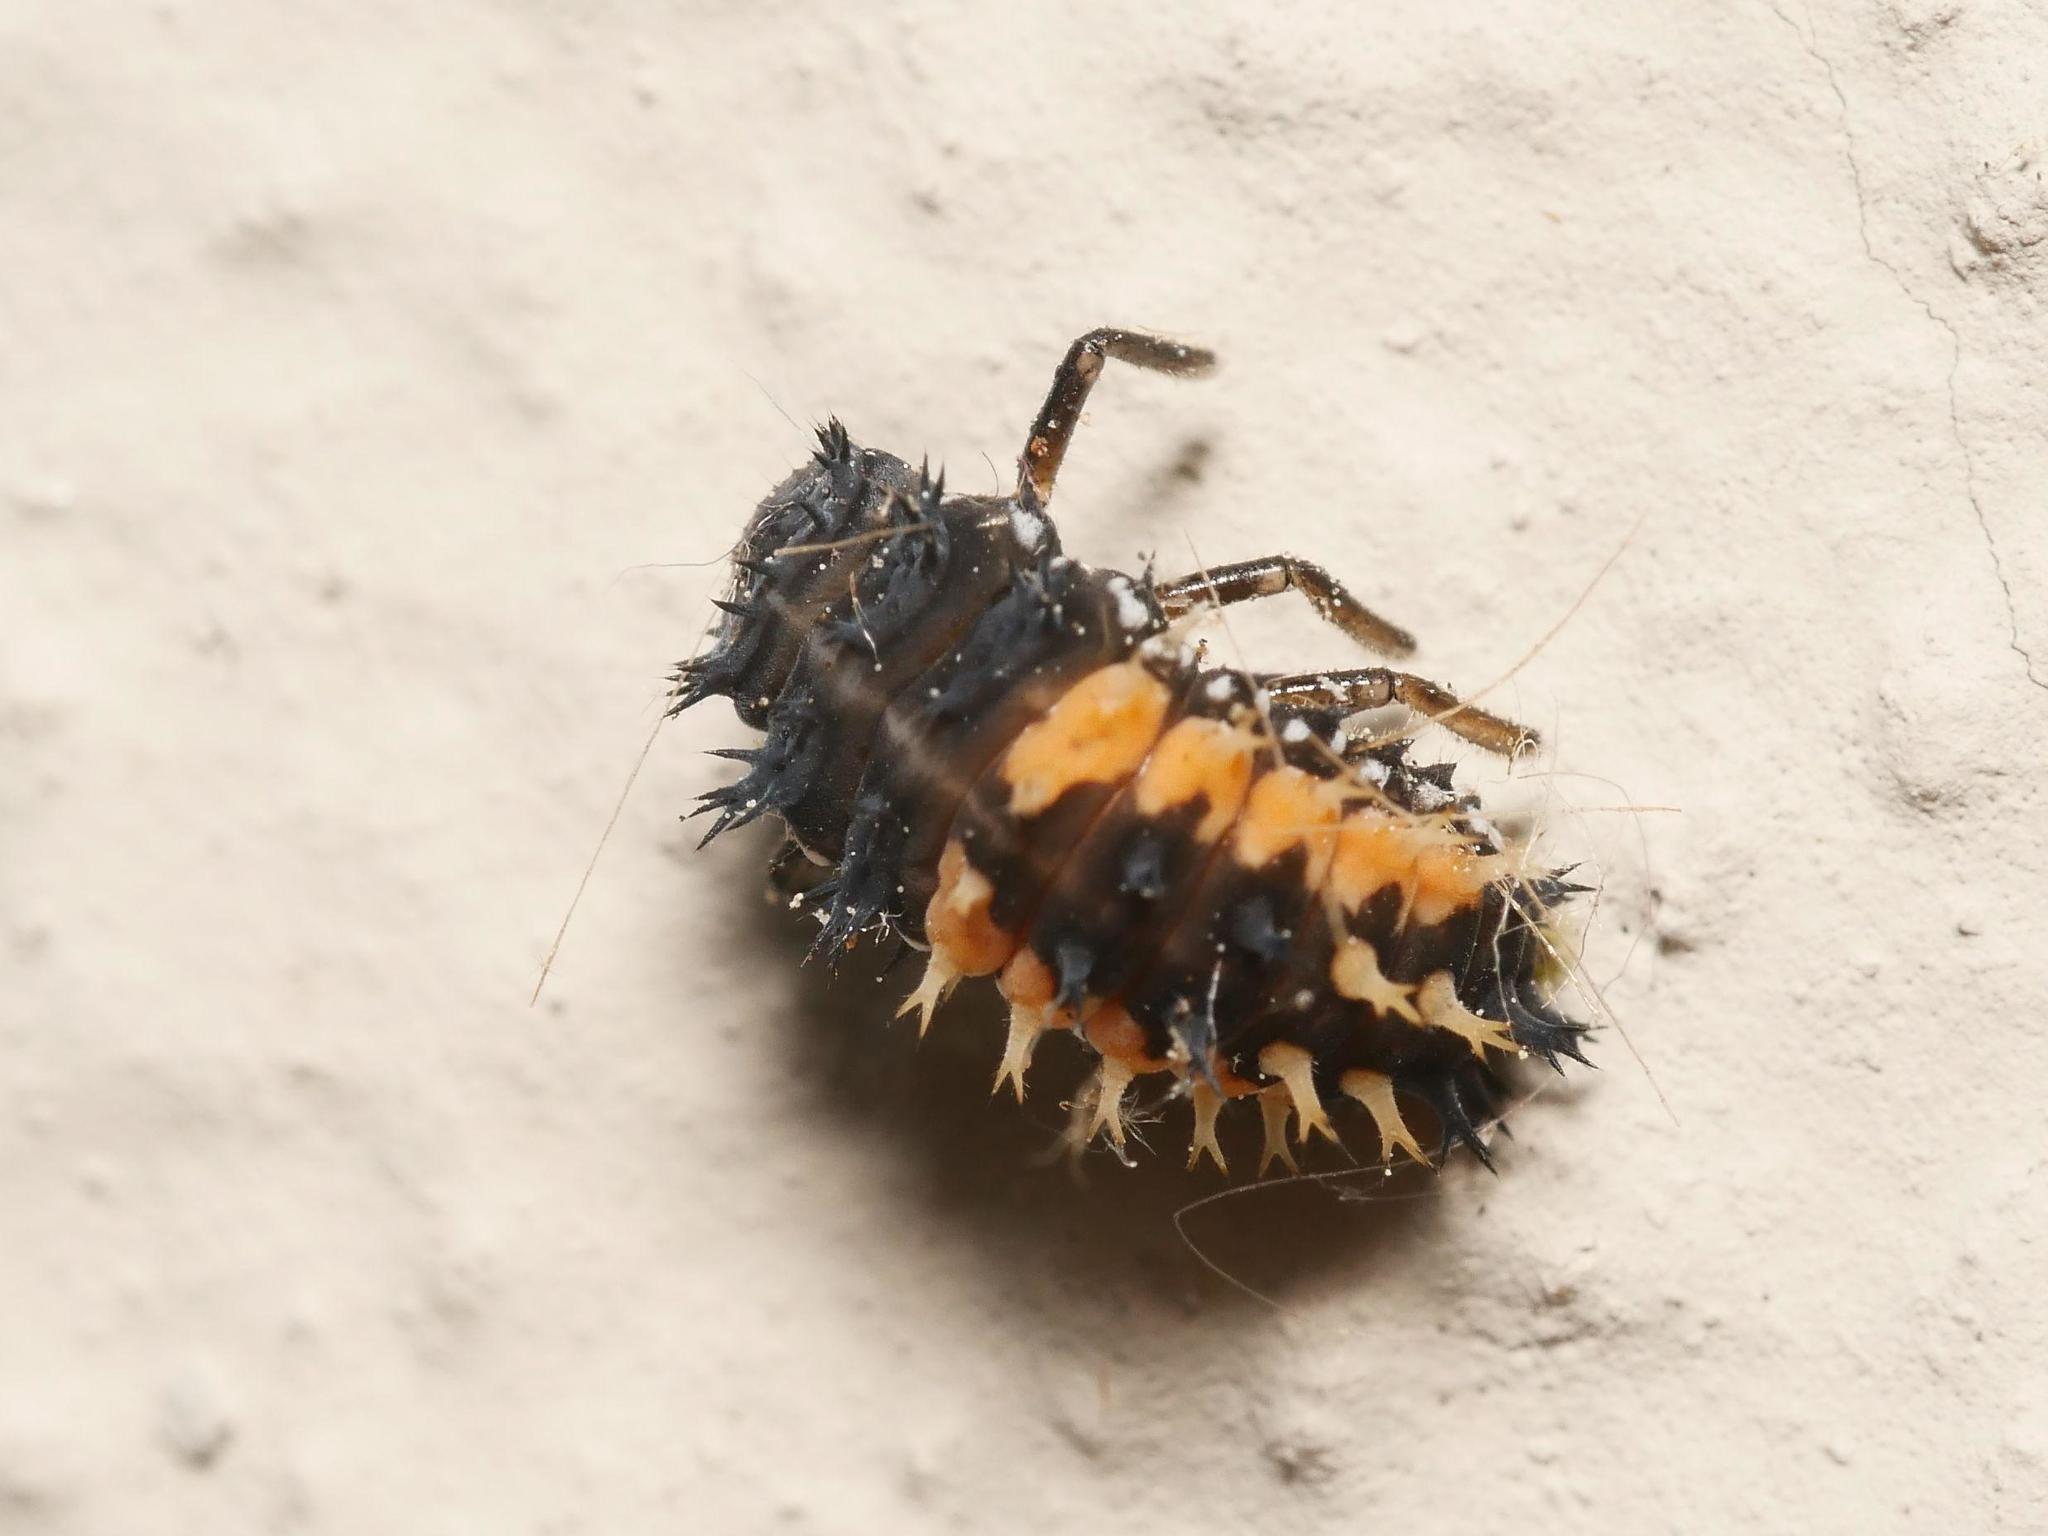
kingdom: Animalia
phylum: Arthropoda
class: Insecta
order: Coleoptera
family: Coccinellidae
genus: Harmonia
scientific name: Harmonia axyridis
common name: Harlequin ladybird
